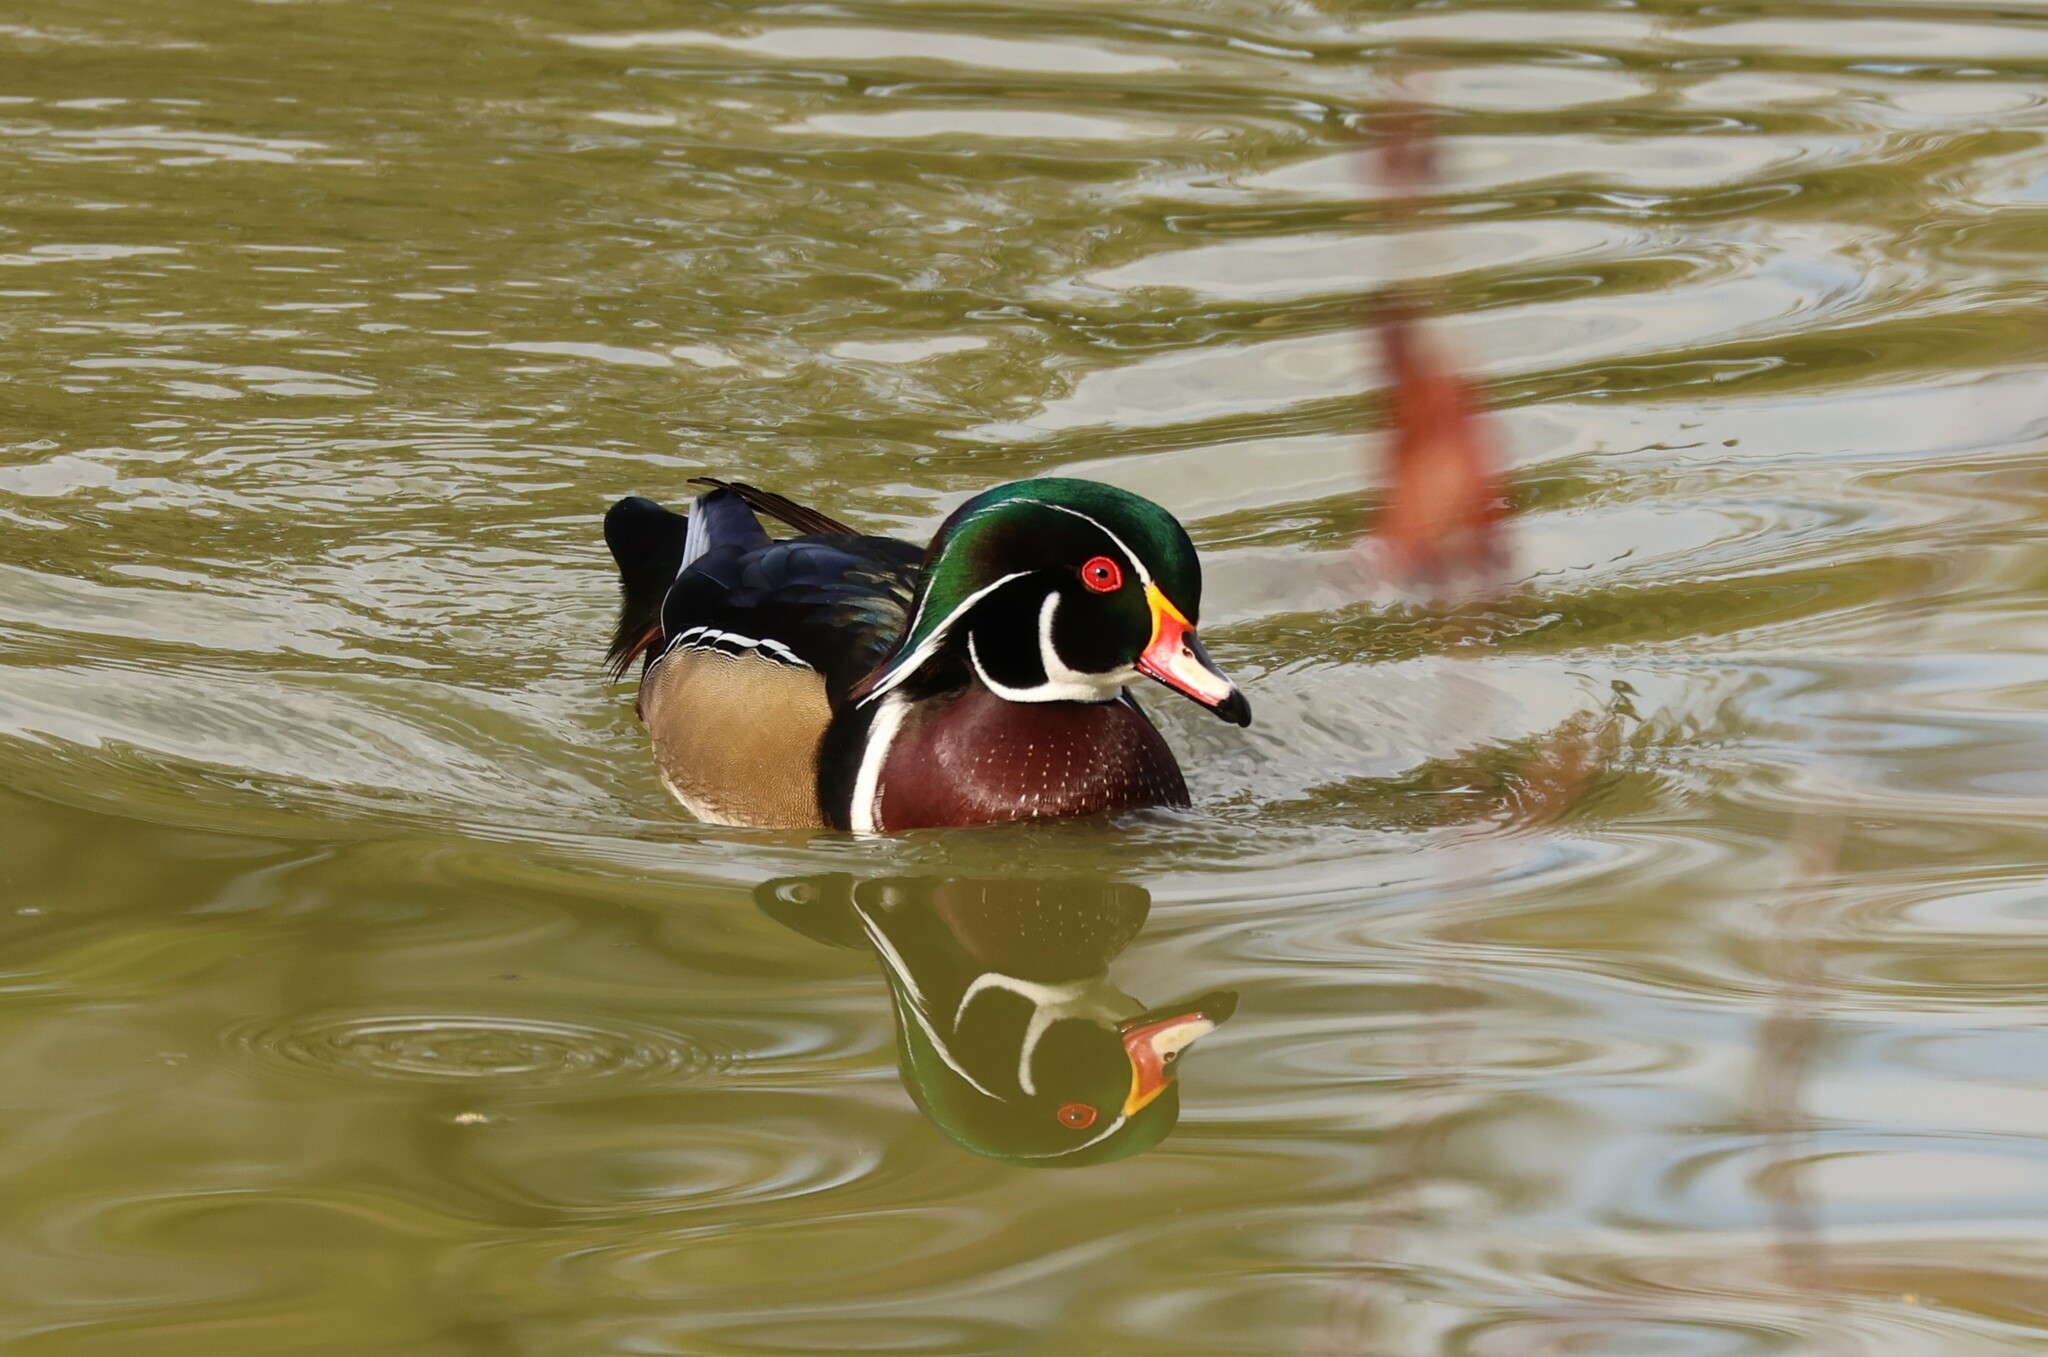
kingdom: Animalia
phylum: Chordata
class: Aves
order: Anseriformes
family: Anatidae
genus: Aix
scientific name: Aix sponsa
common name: Wood duck
